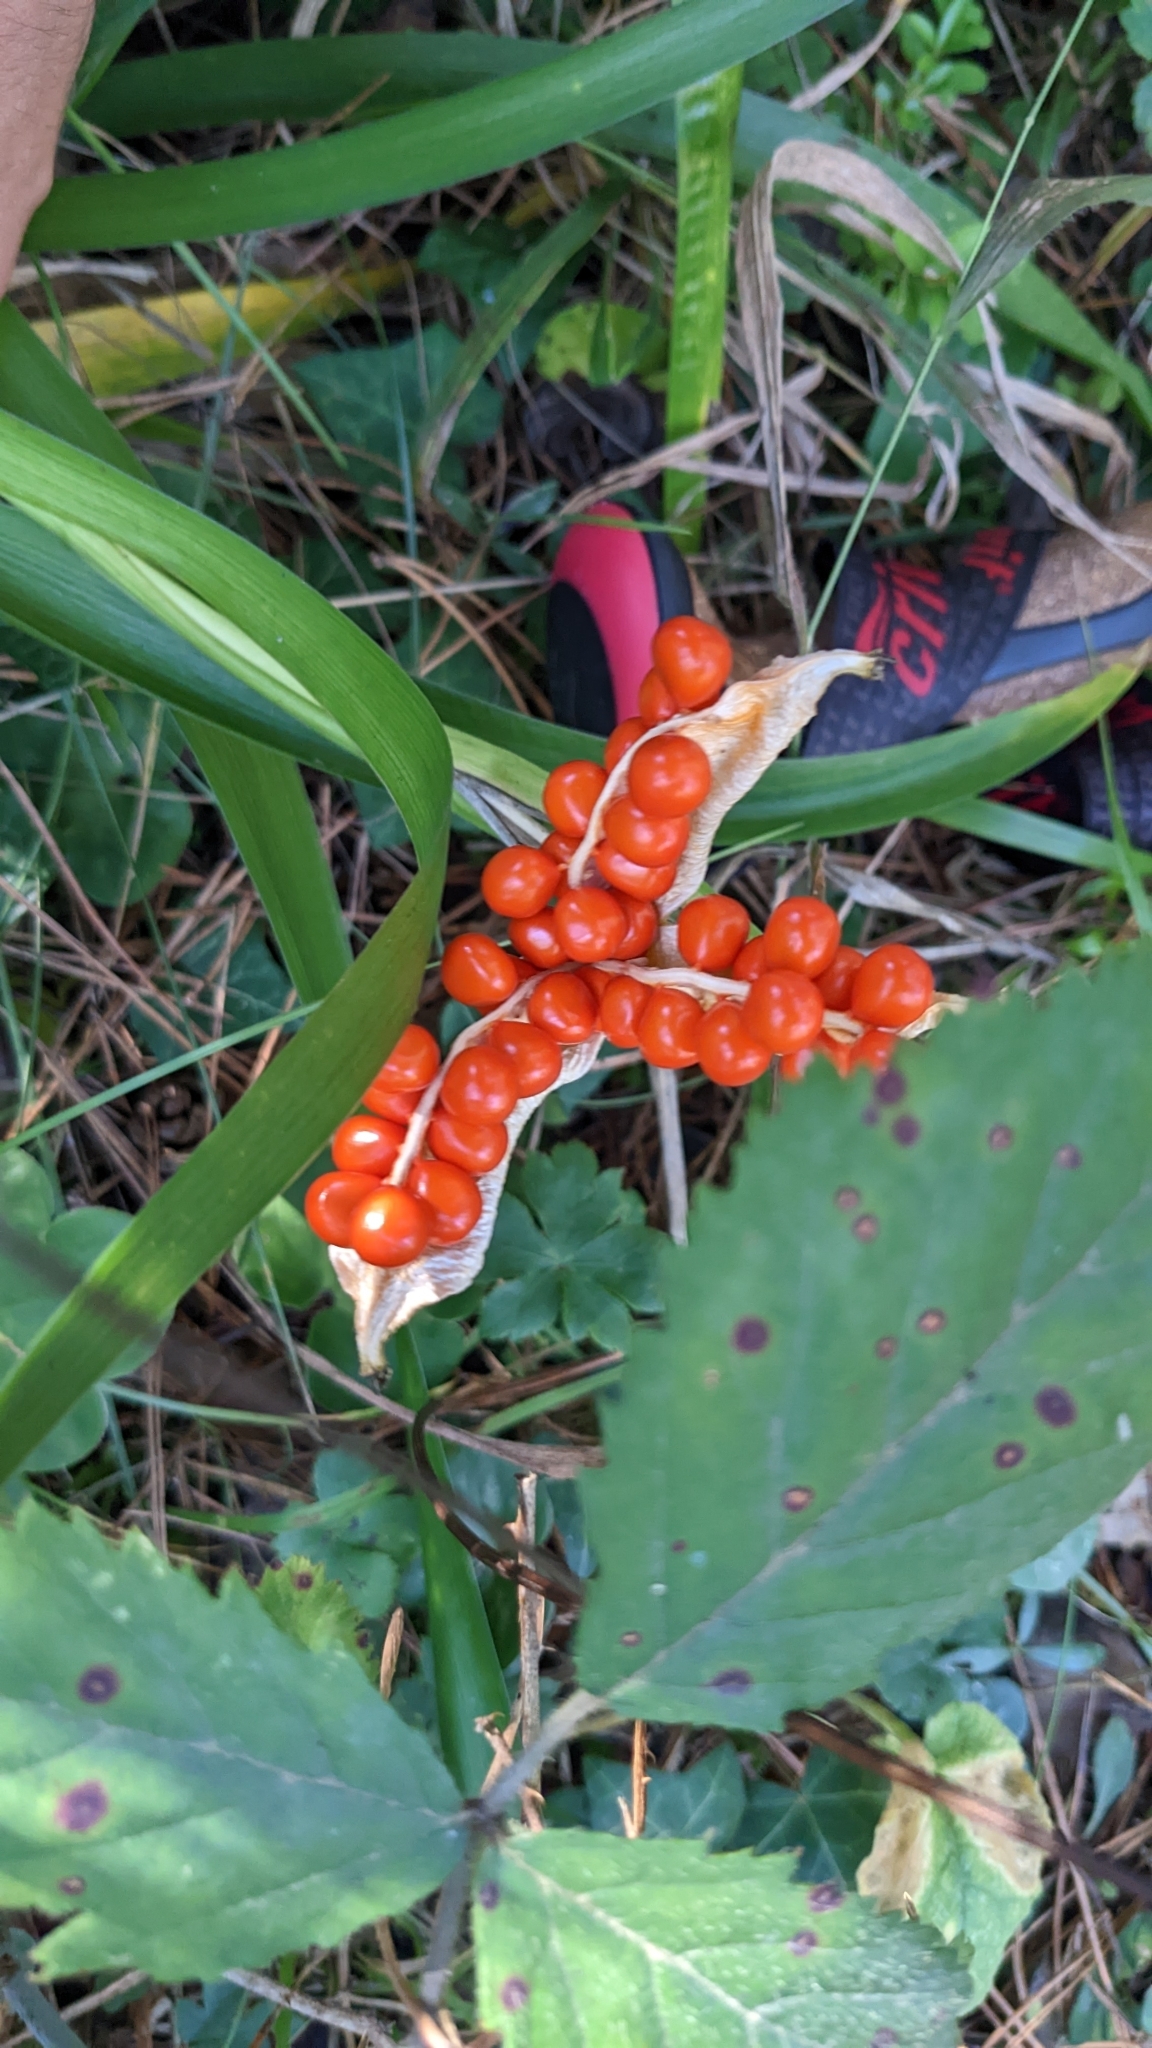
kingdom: Plantae
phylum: Tracheophyta
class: Liliopsida
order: Asparagales
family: Iridaceae
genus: Iris
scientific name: Iris foetidissima
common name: Stinking iris
